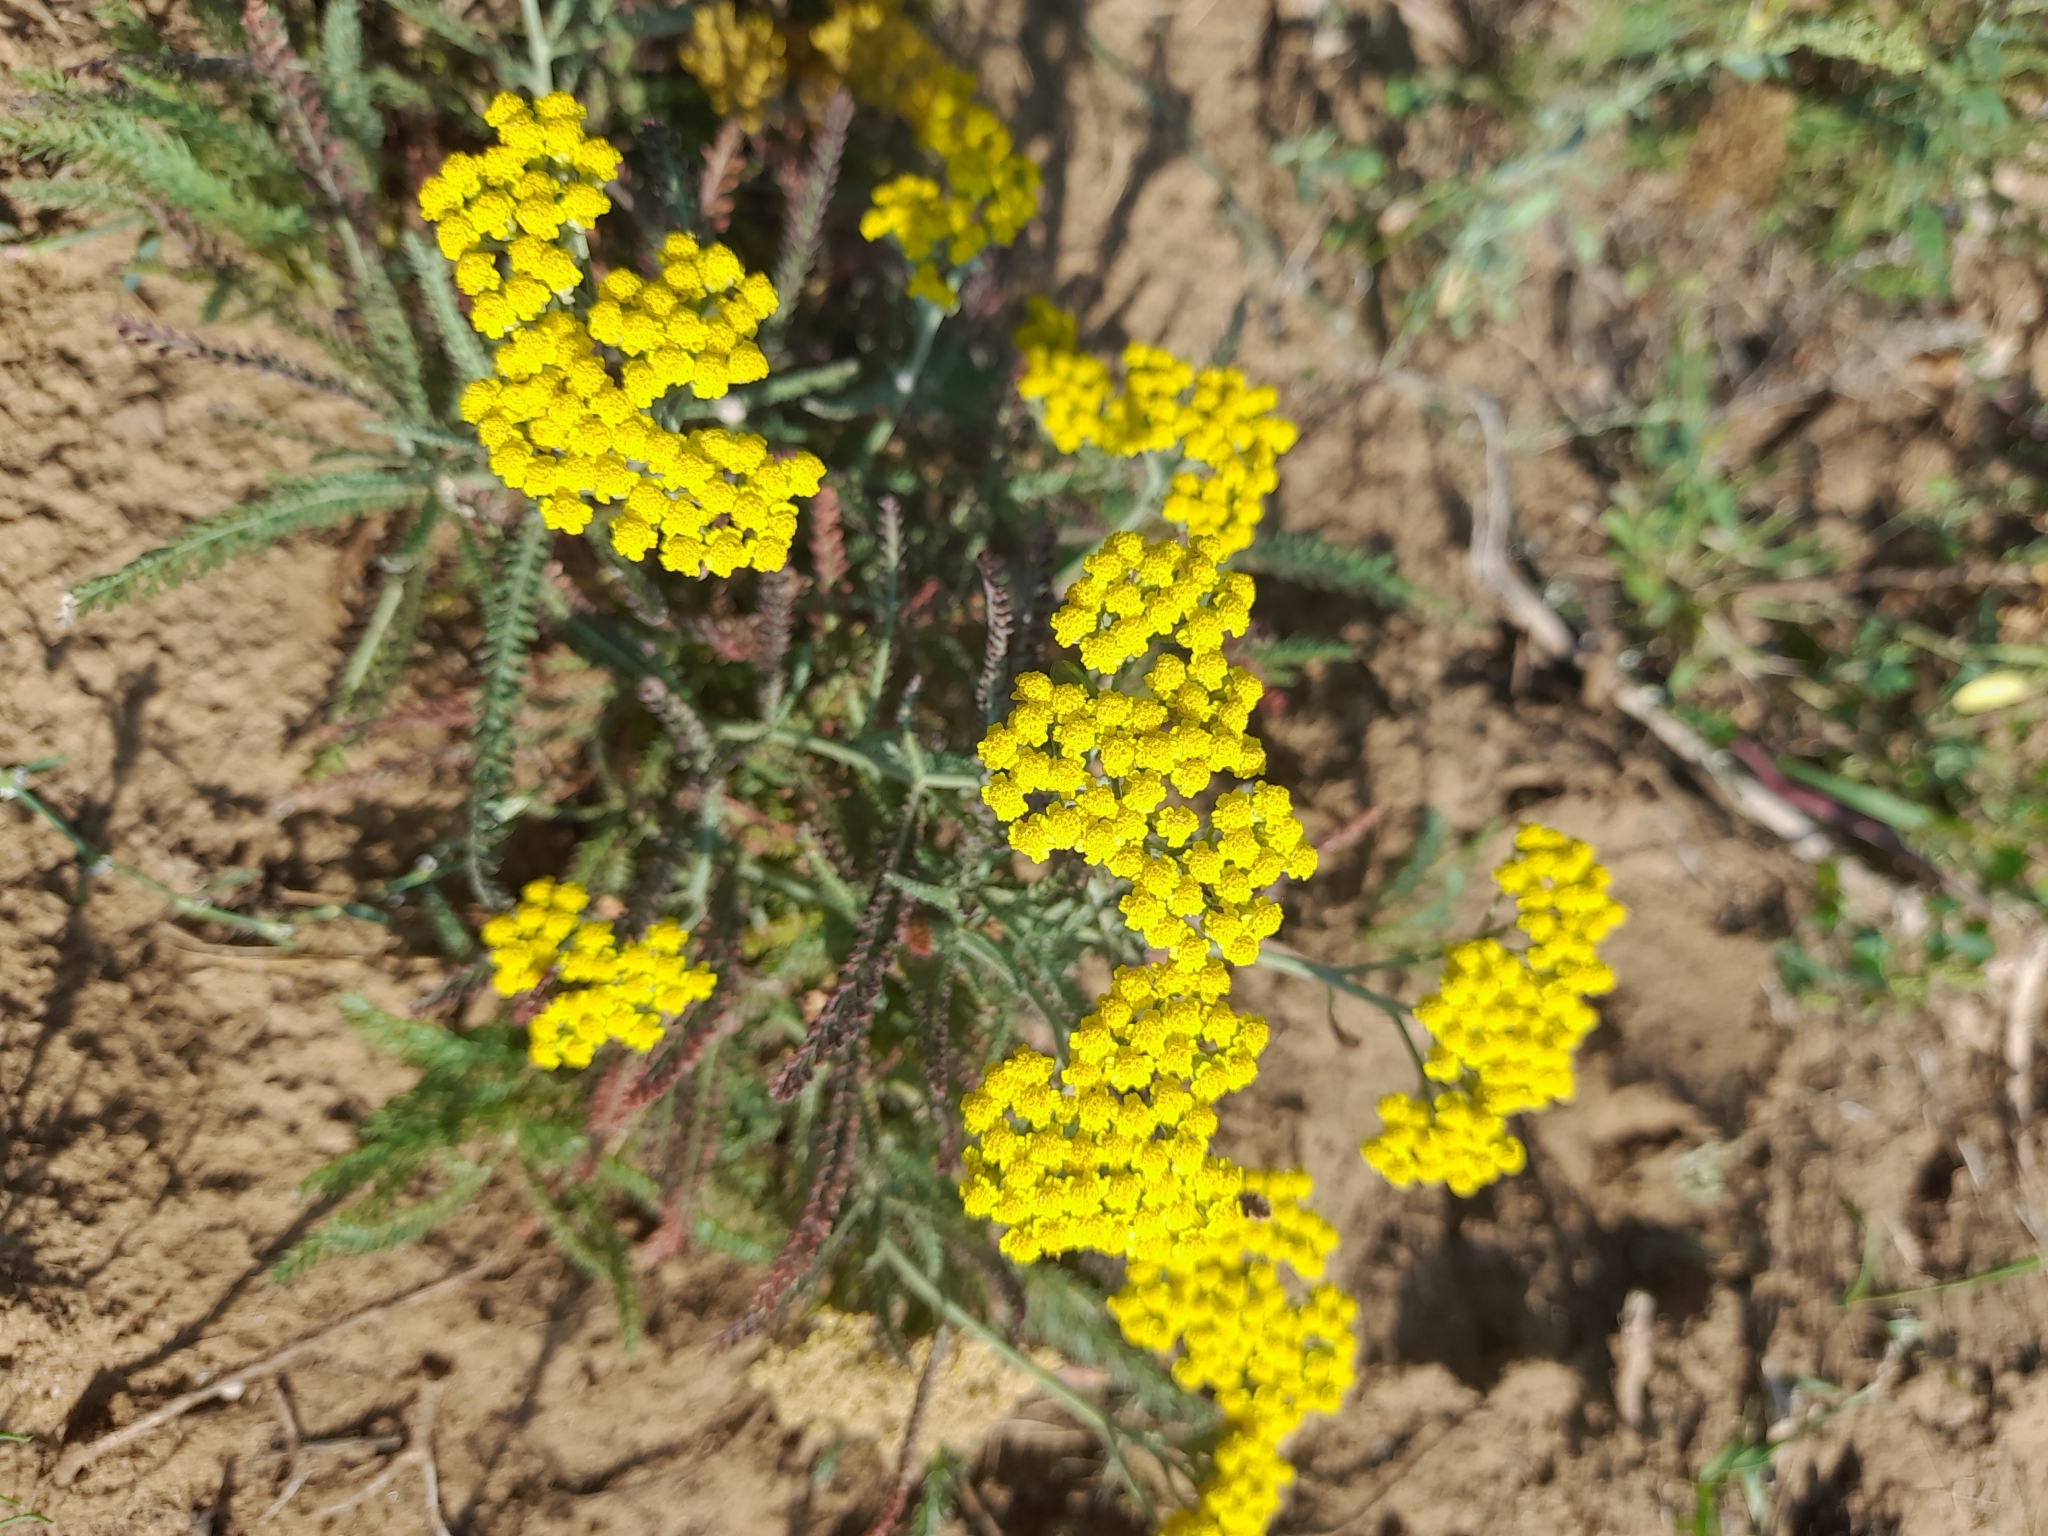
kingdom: Plantae
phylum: Tracheophyta
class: Magnoliopsida
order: Asterales
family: Asteraceae
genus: Achillea
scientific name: Achillea micrantha
